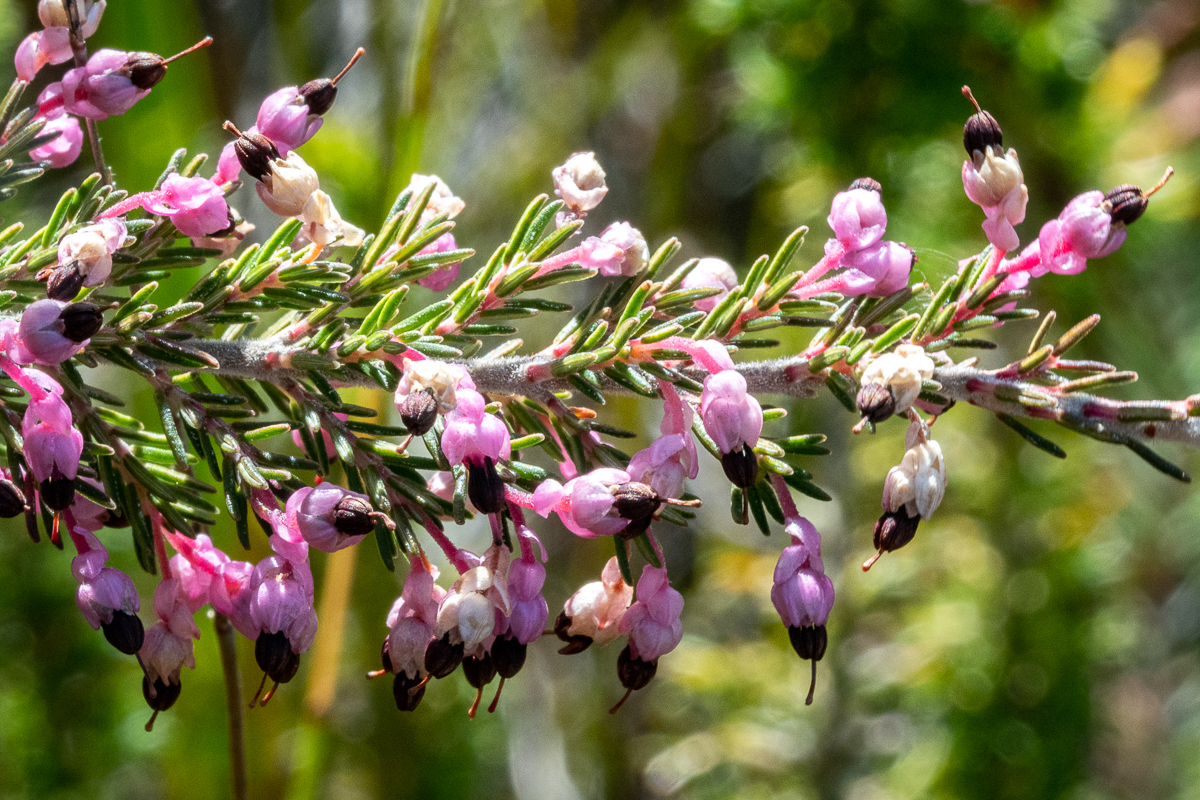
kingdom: Plantae
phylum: Tracheophyta
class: Magnoliopsida
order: Ericales
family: Ericaceae
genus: Erica
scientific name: Erica placentiflora
